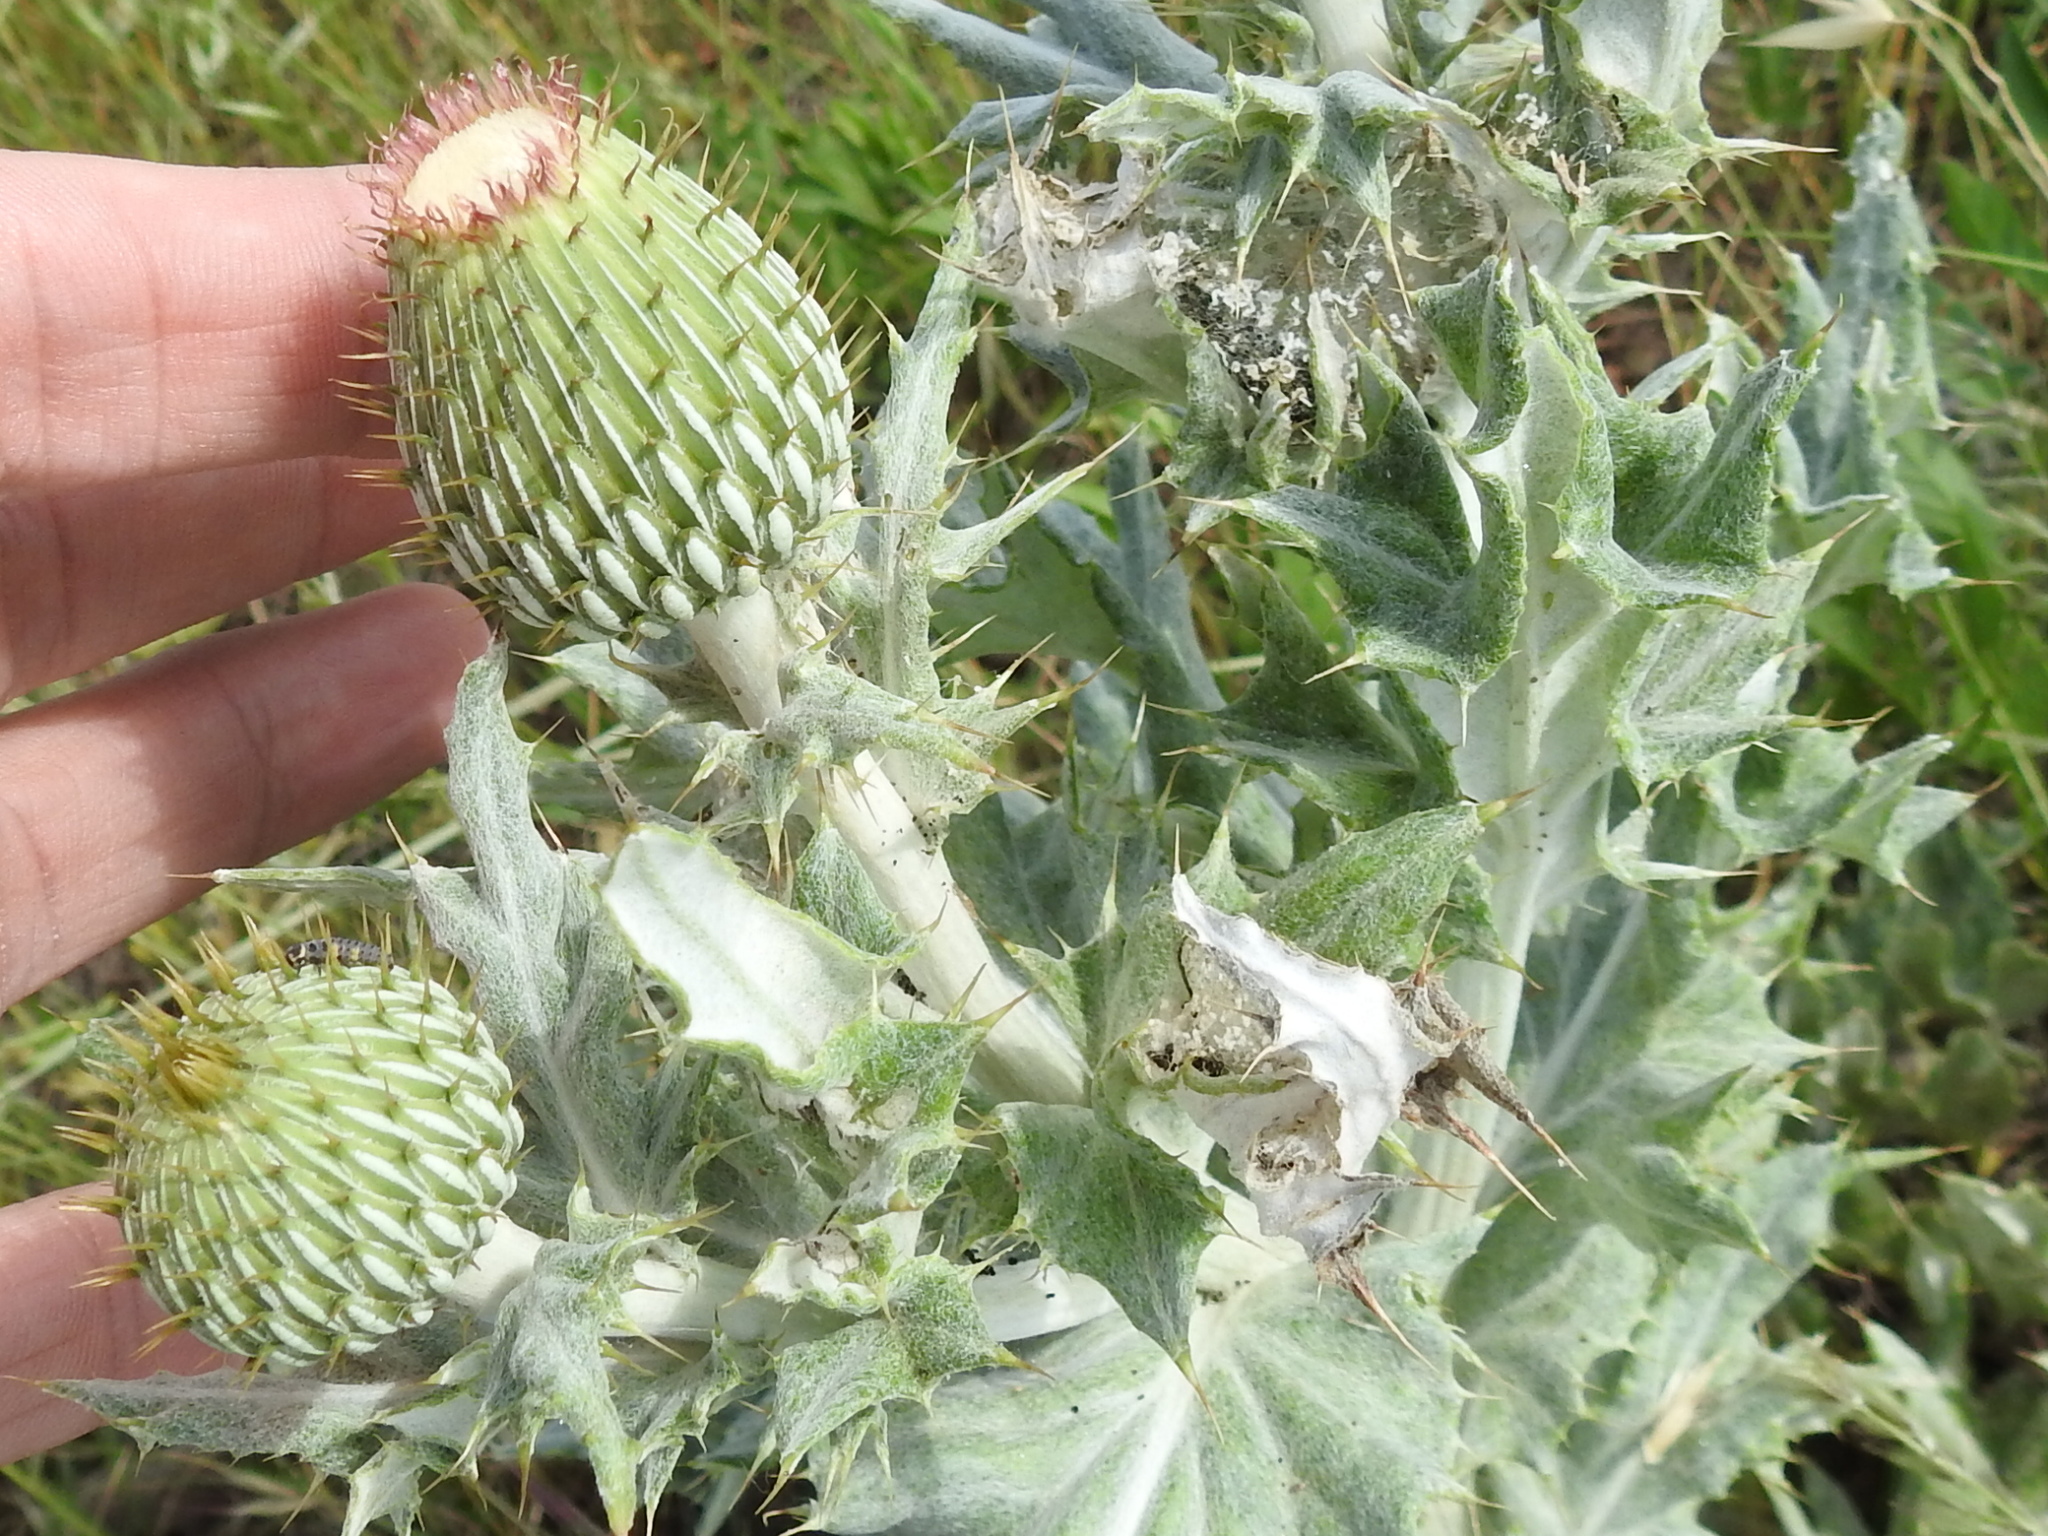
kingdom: Plantae
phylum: Tracheophyta
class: Magnoliopsida
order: Asterales
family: Asteraceae
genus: Cirsium
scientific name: Cirsium undulatum
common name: Pasture thistle
